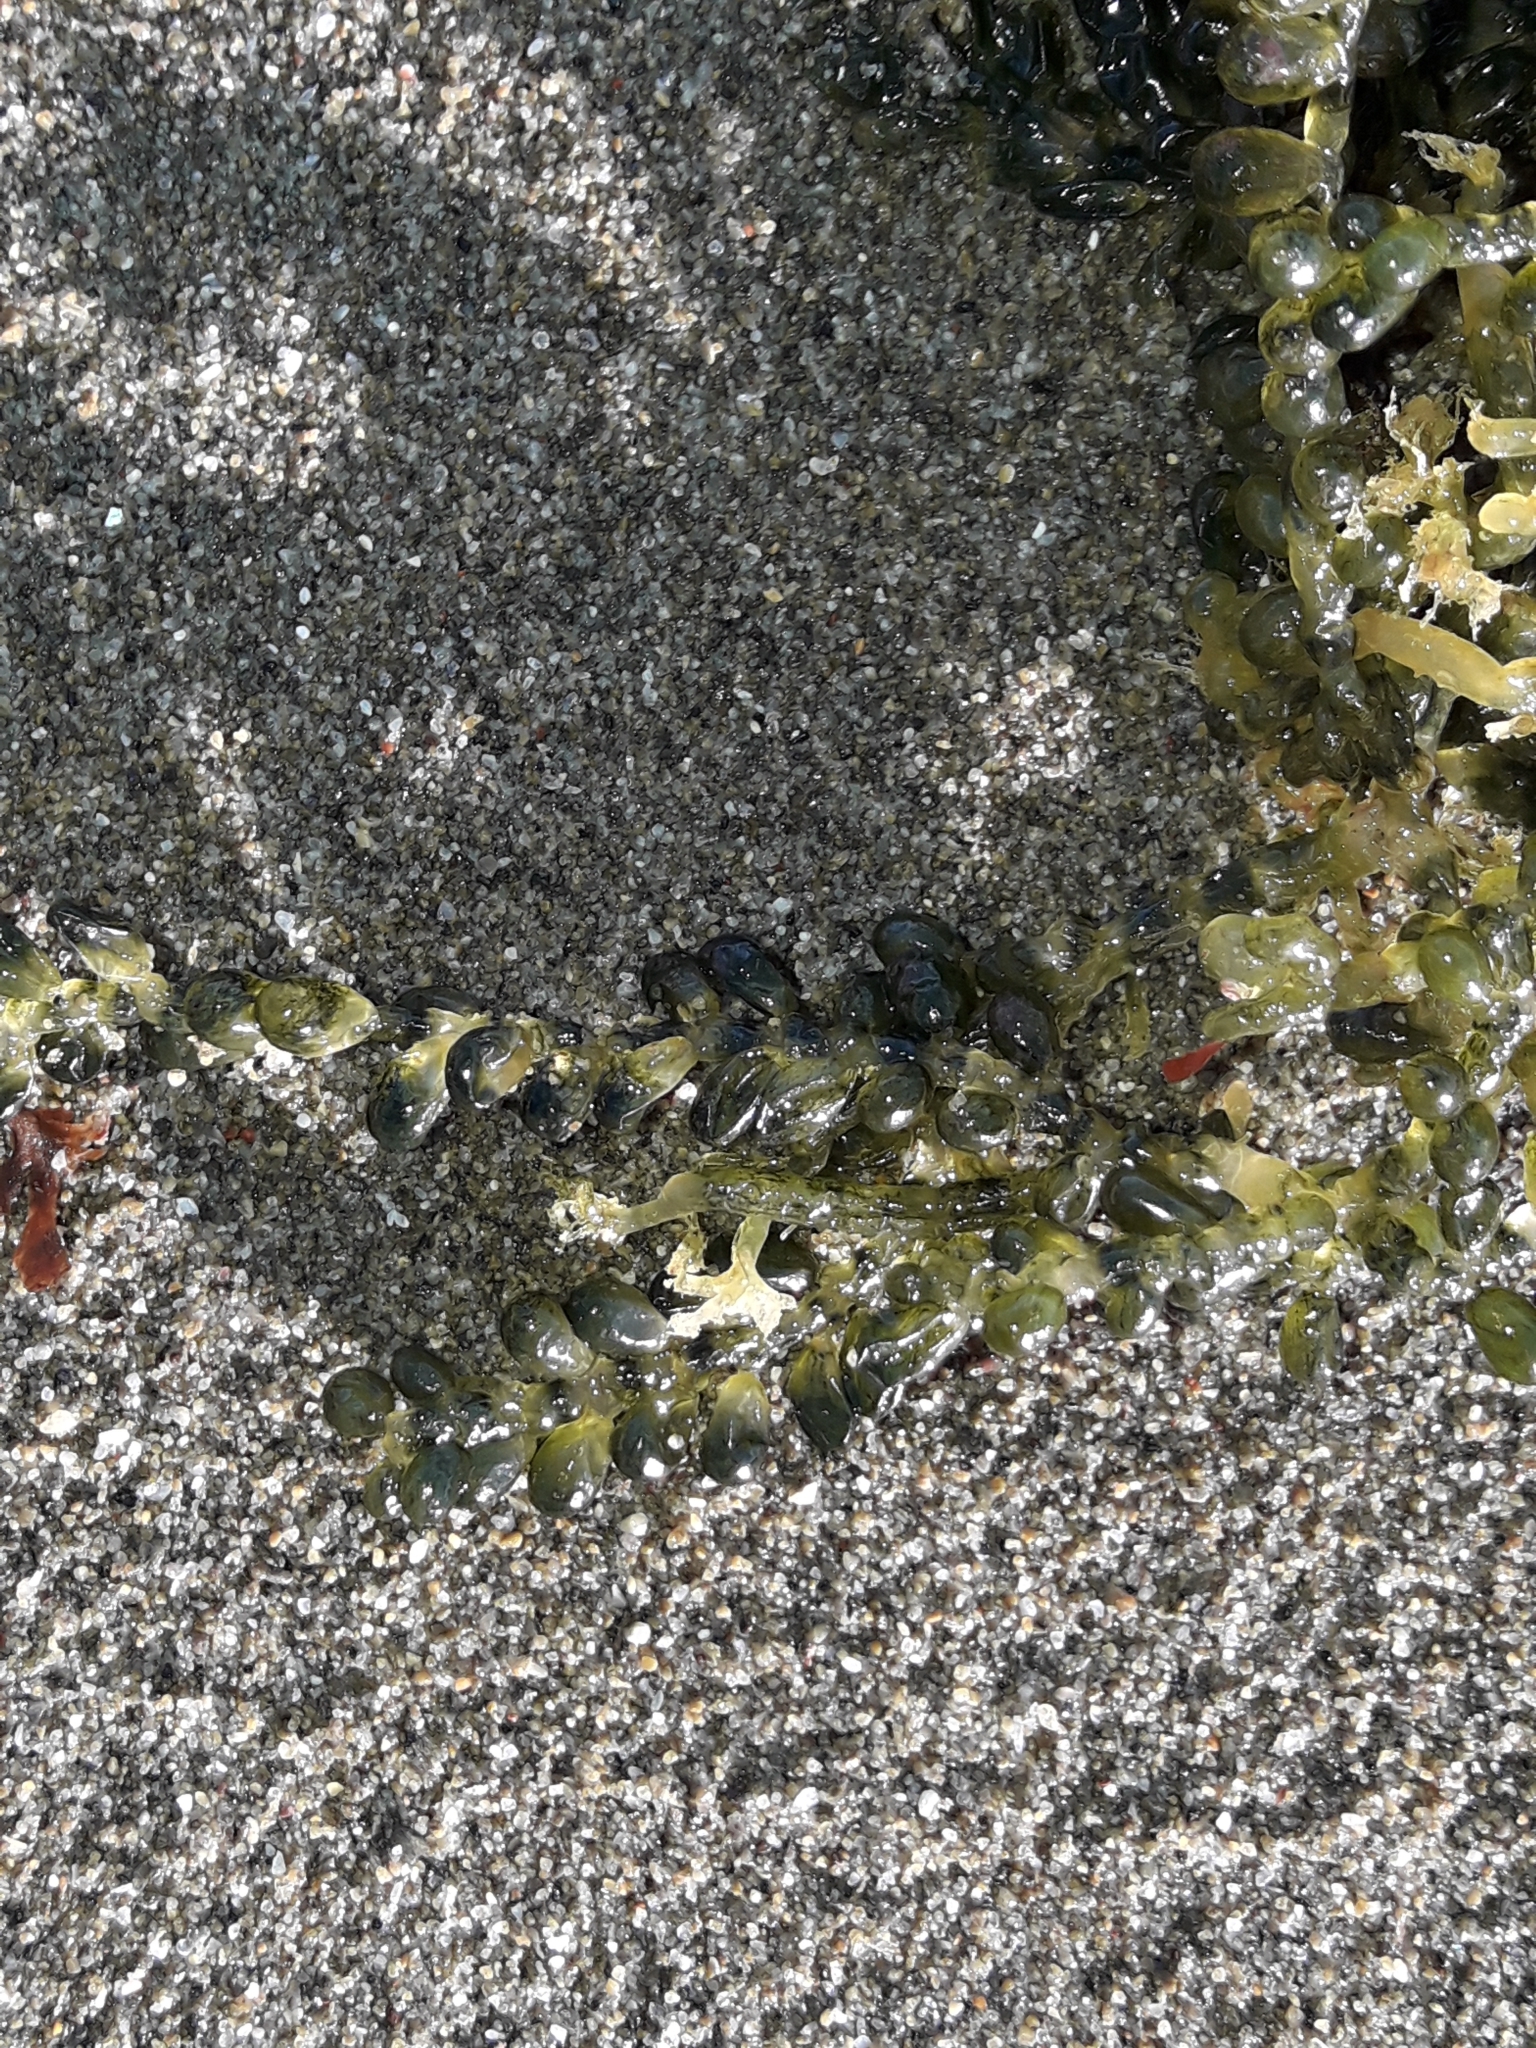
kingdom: Plantae
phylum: Chlorophyta
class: Ulvophyceae
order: Bryopsidales
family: Caulerpaceae
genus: Caulerpa
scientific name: Caulerpa geminata
